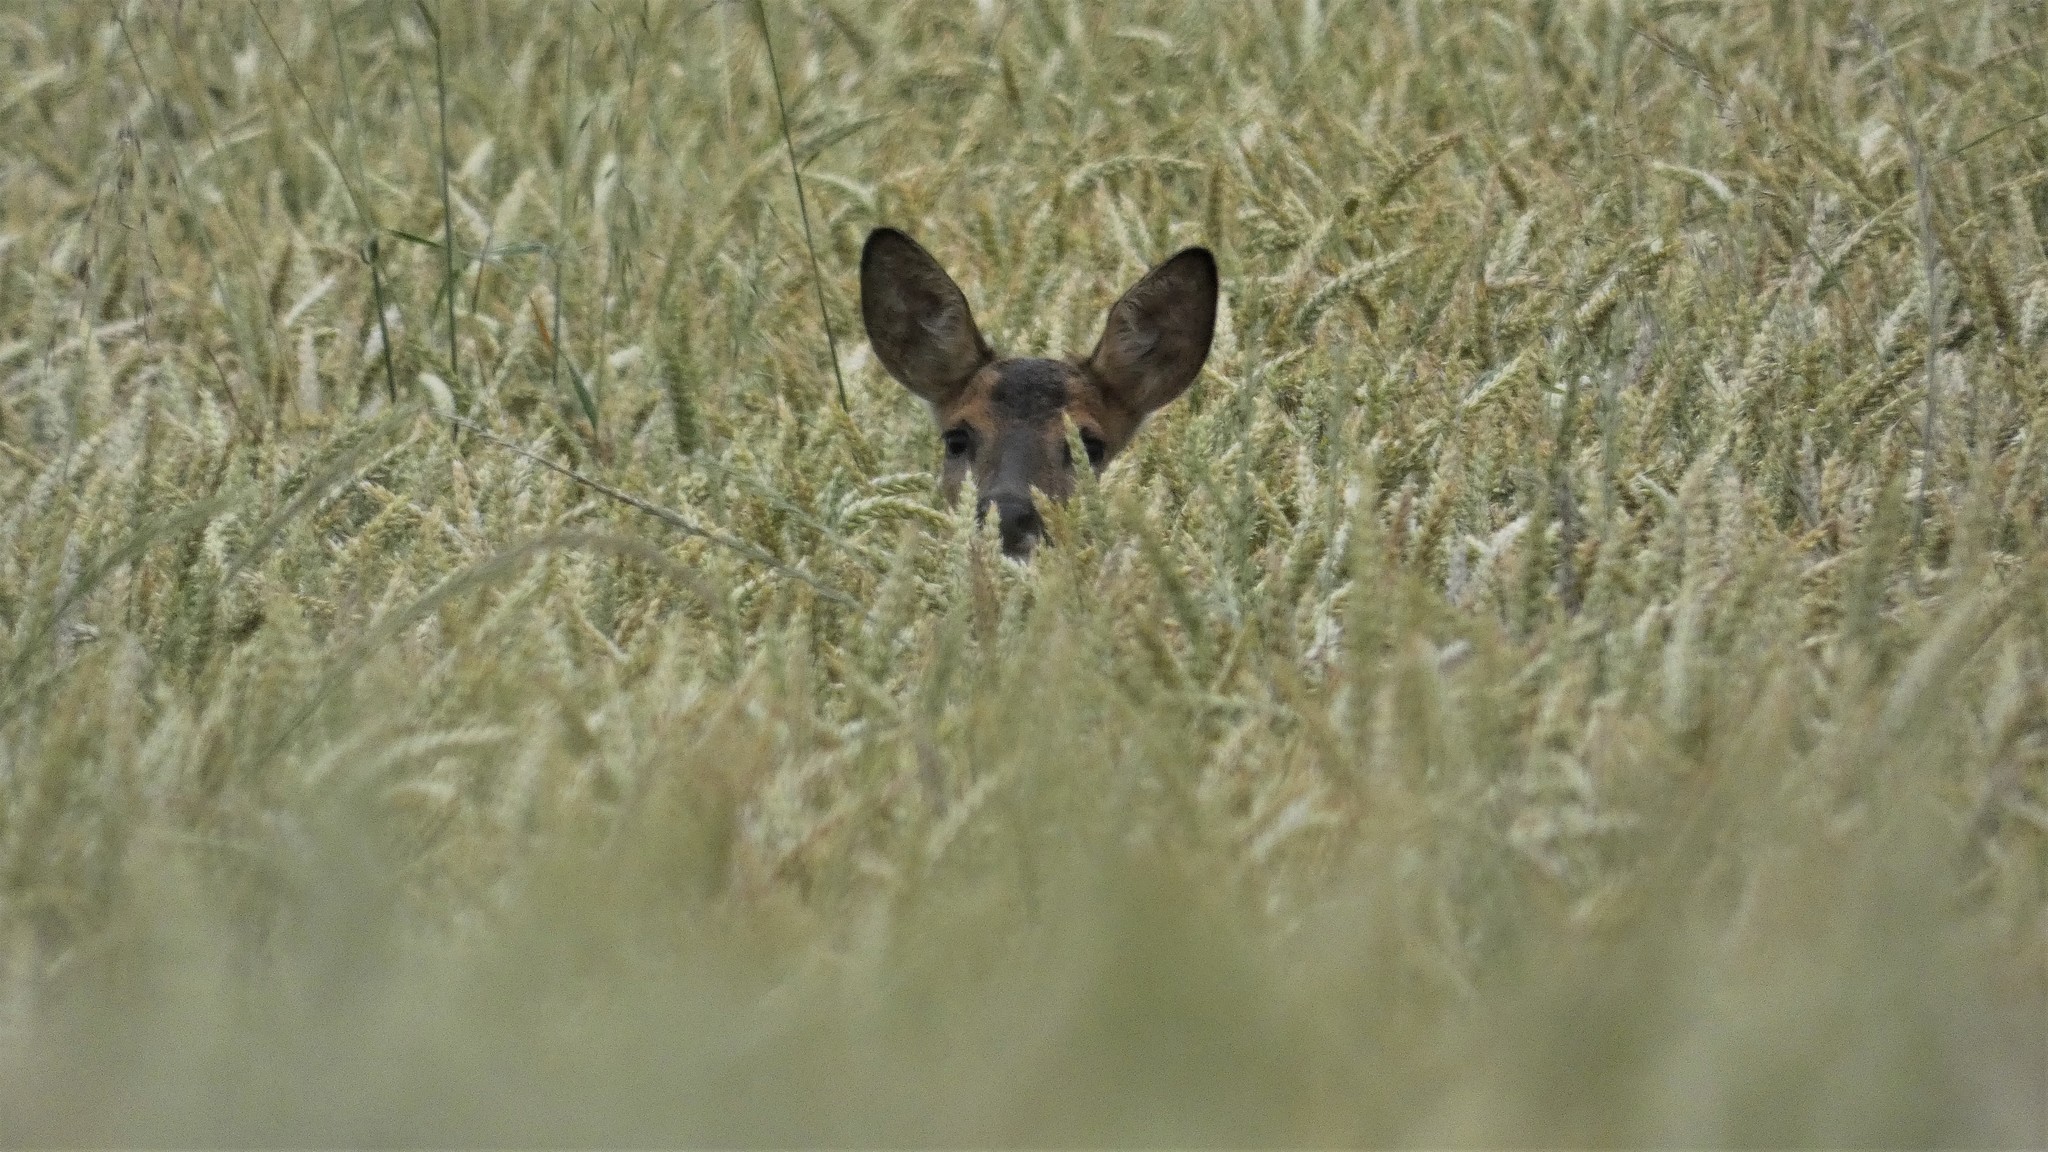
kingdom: Animalia
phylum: Chordata
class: Mammalia
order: Artiodactyla
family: Cervidae
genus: Capreolus
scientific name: Capreolus capreolus
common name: Western roe deer
